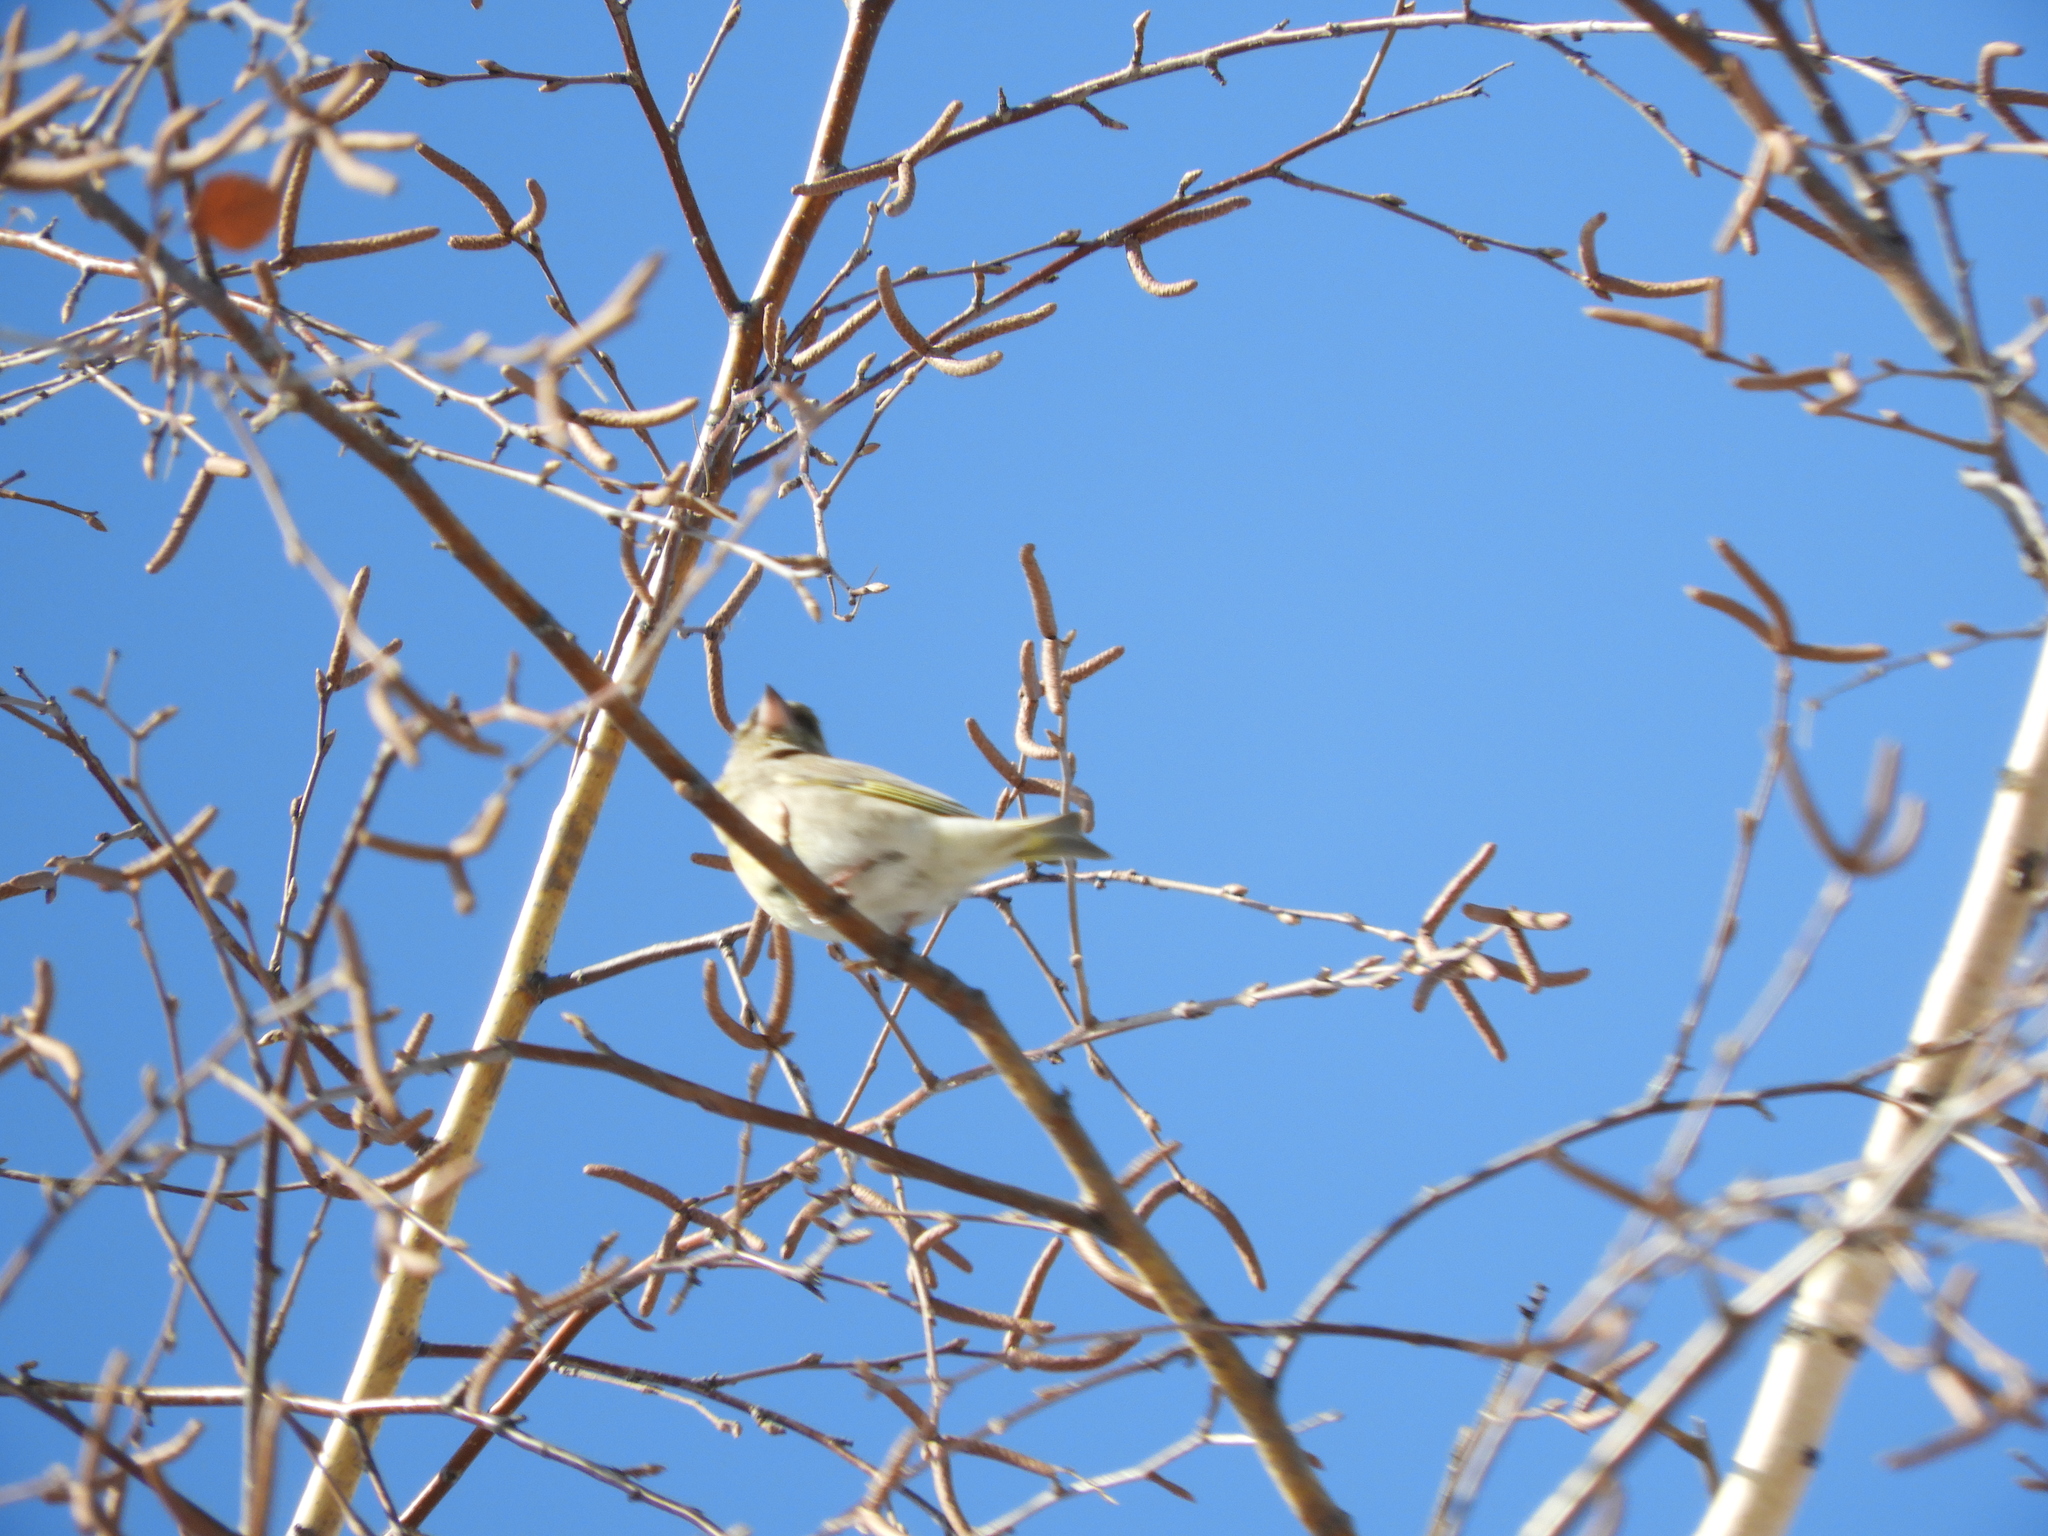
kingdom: Plantae
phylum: Tracheophyta
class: Liliopsida
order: Poales
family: Poaceae
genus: Chloris
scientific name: Chloris chloris
